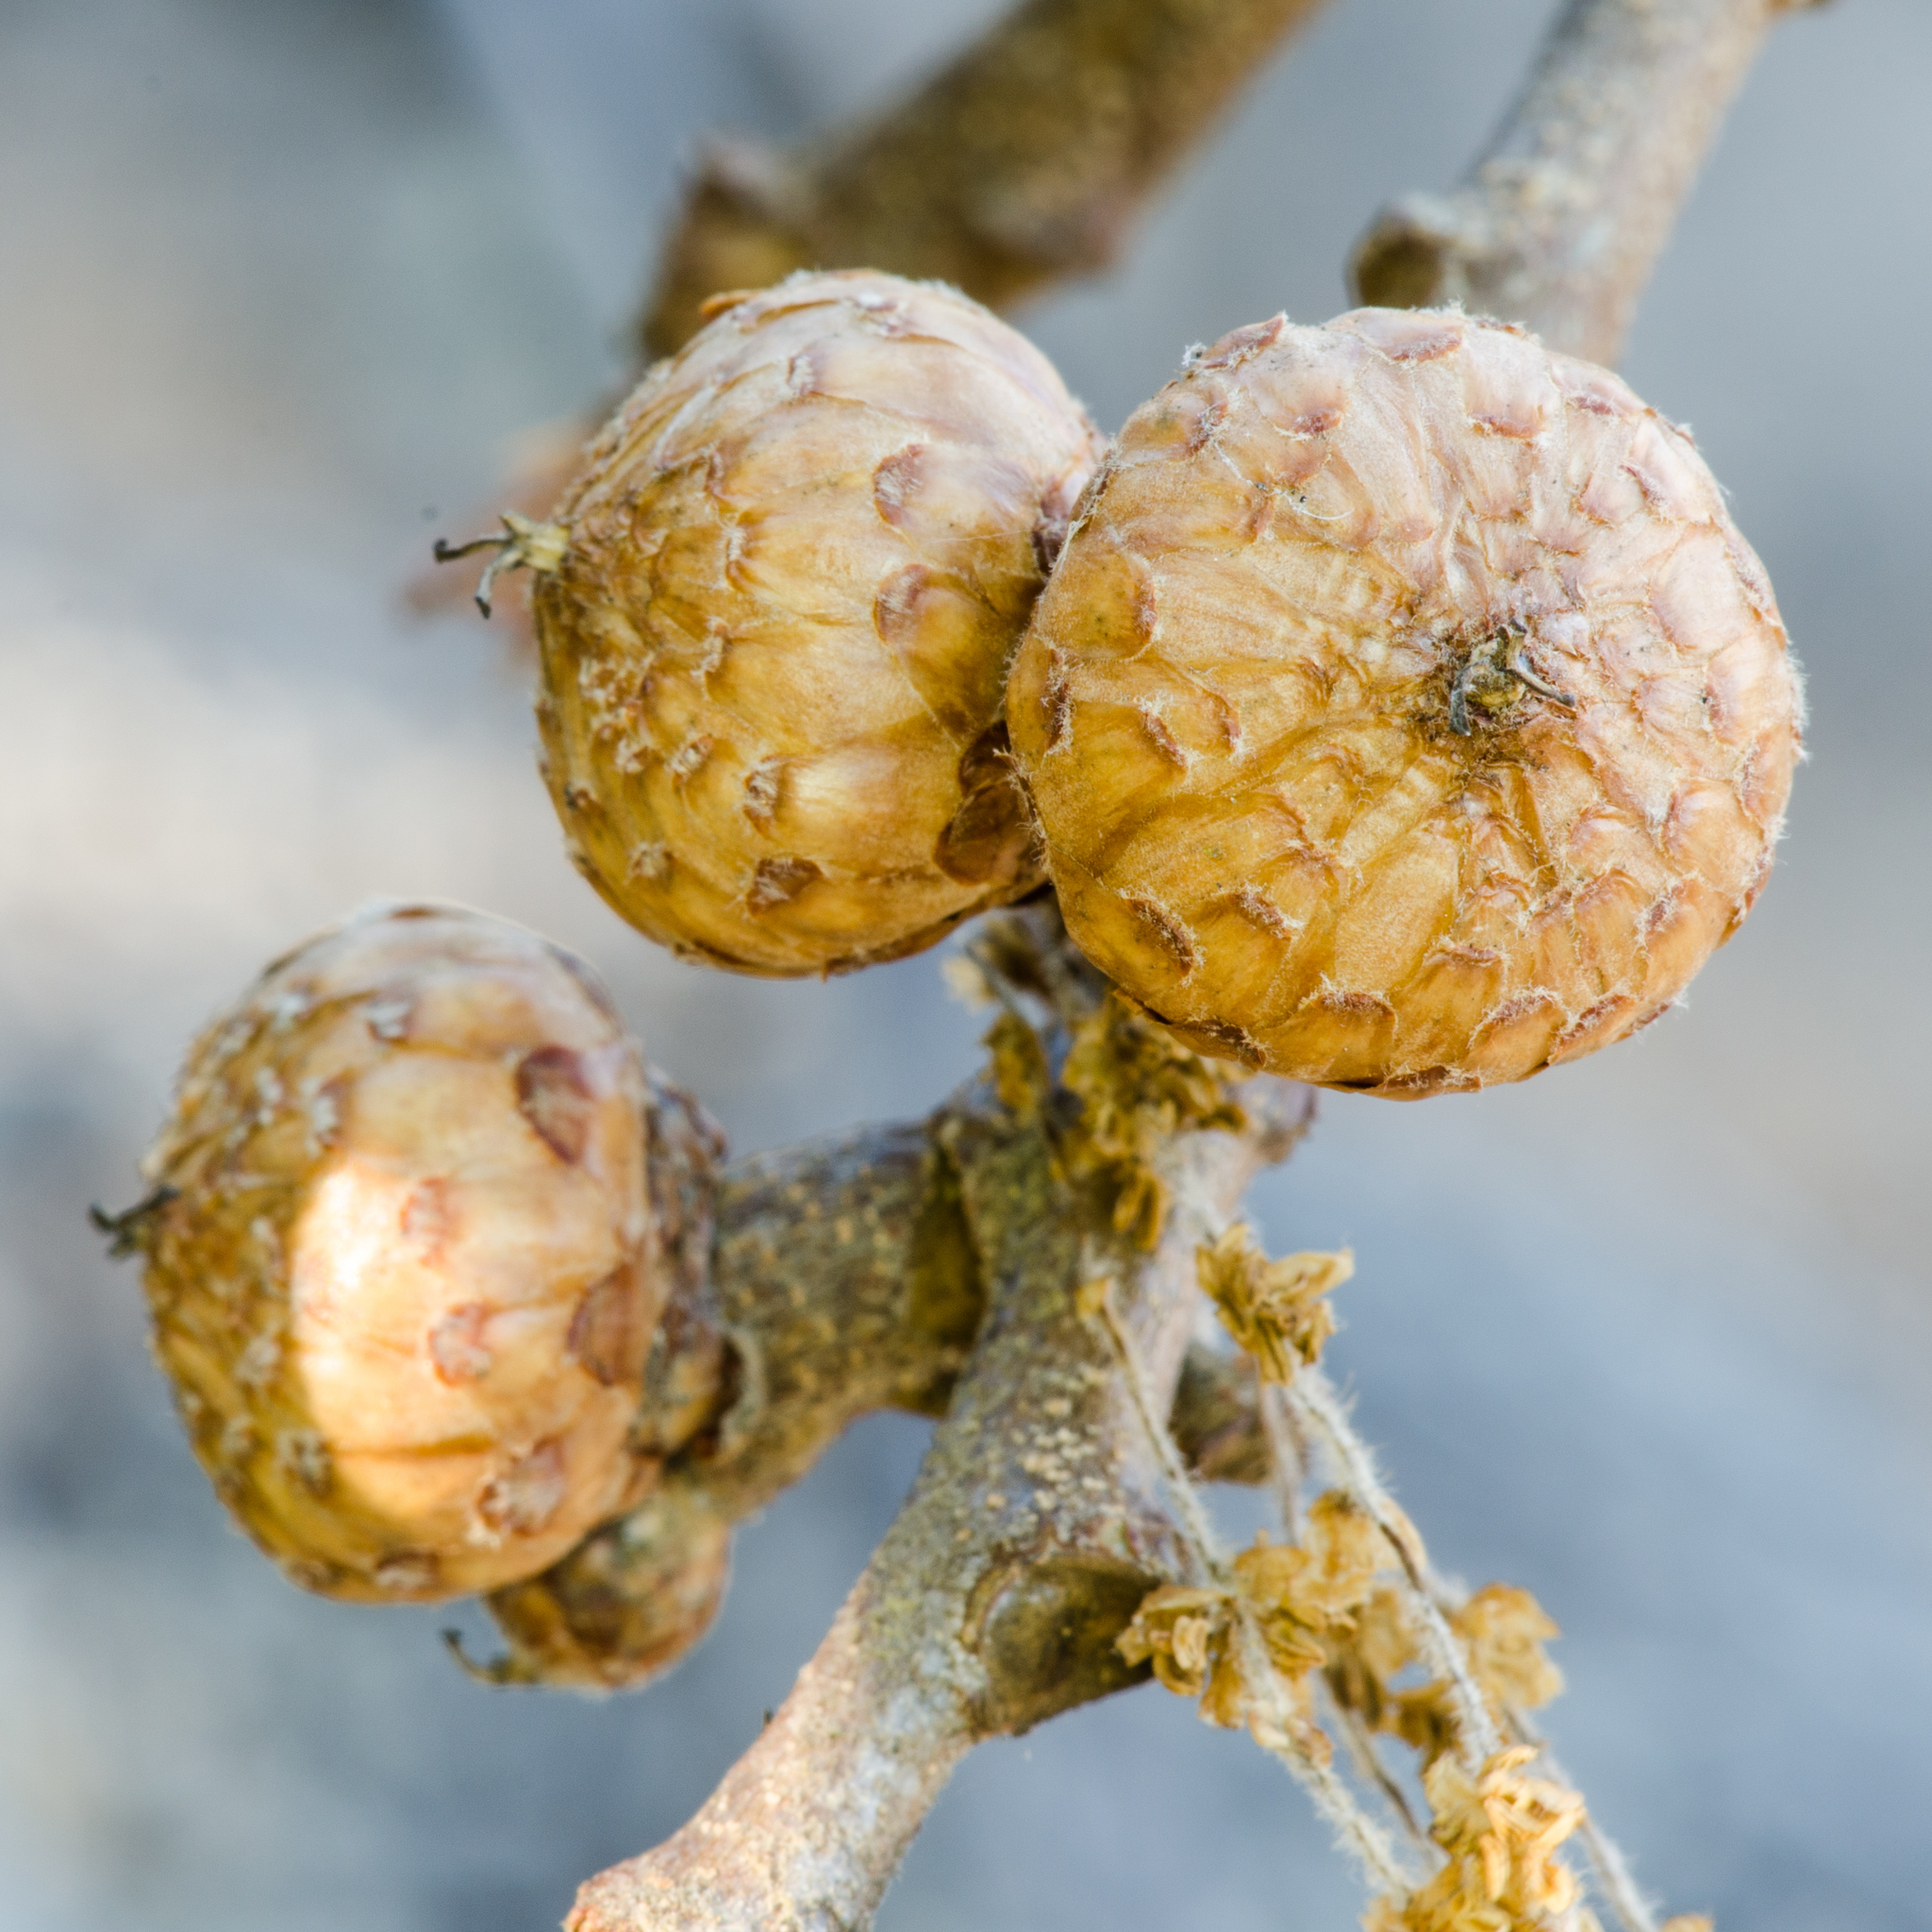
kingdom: Plantae
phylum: Tracheophyta
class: Magnoliopsida
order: Fagales
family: Fagaceae
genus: Quercus
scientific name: Quercus kelloggii
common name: California black oak
